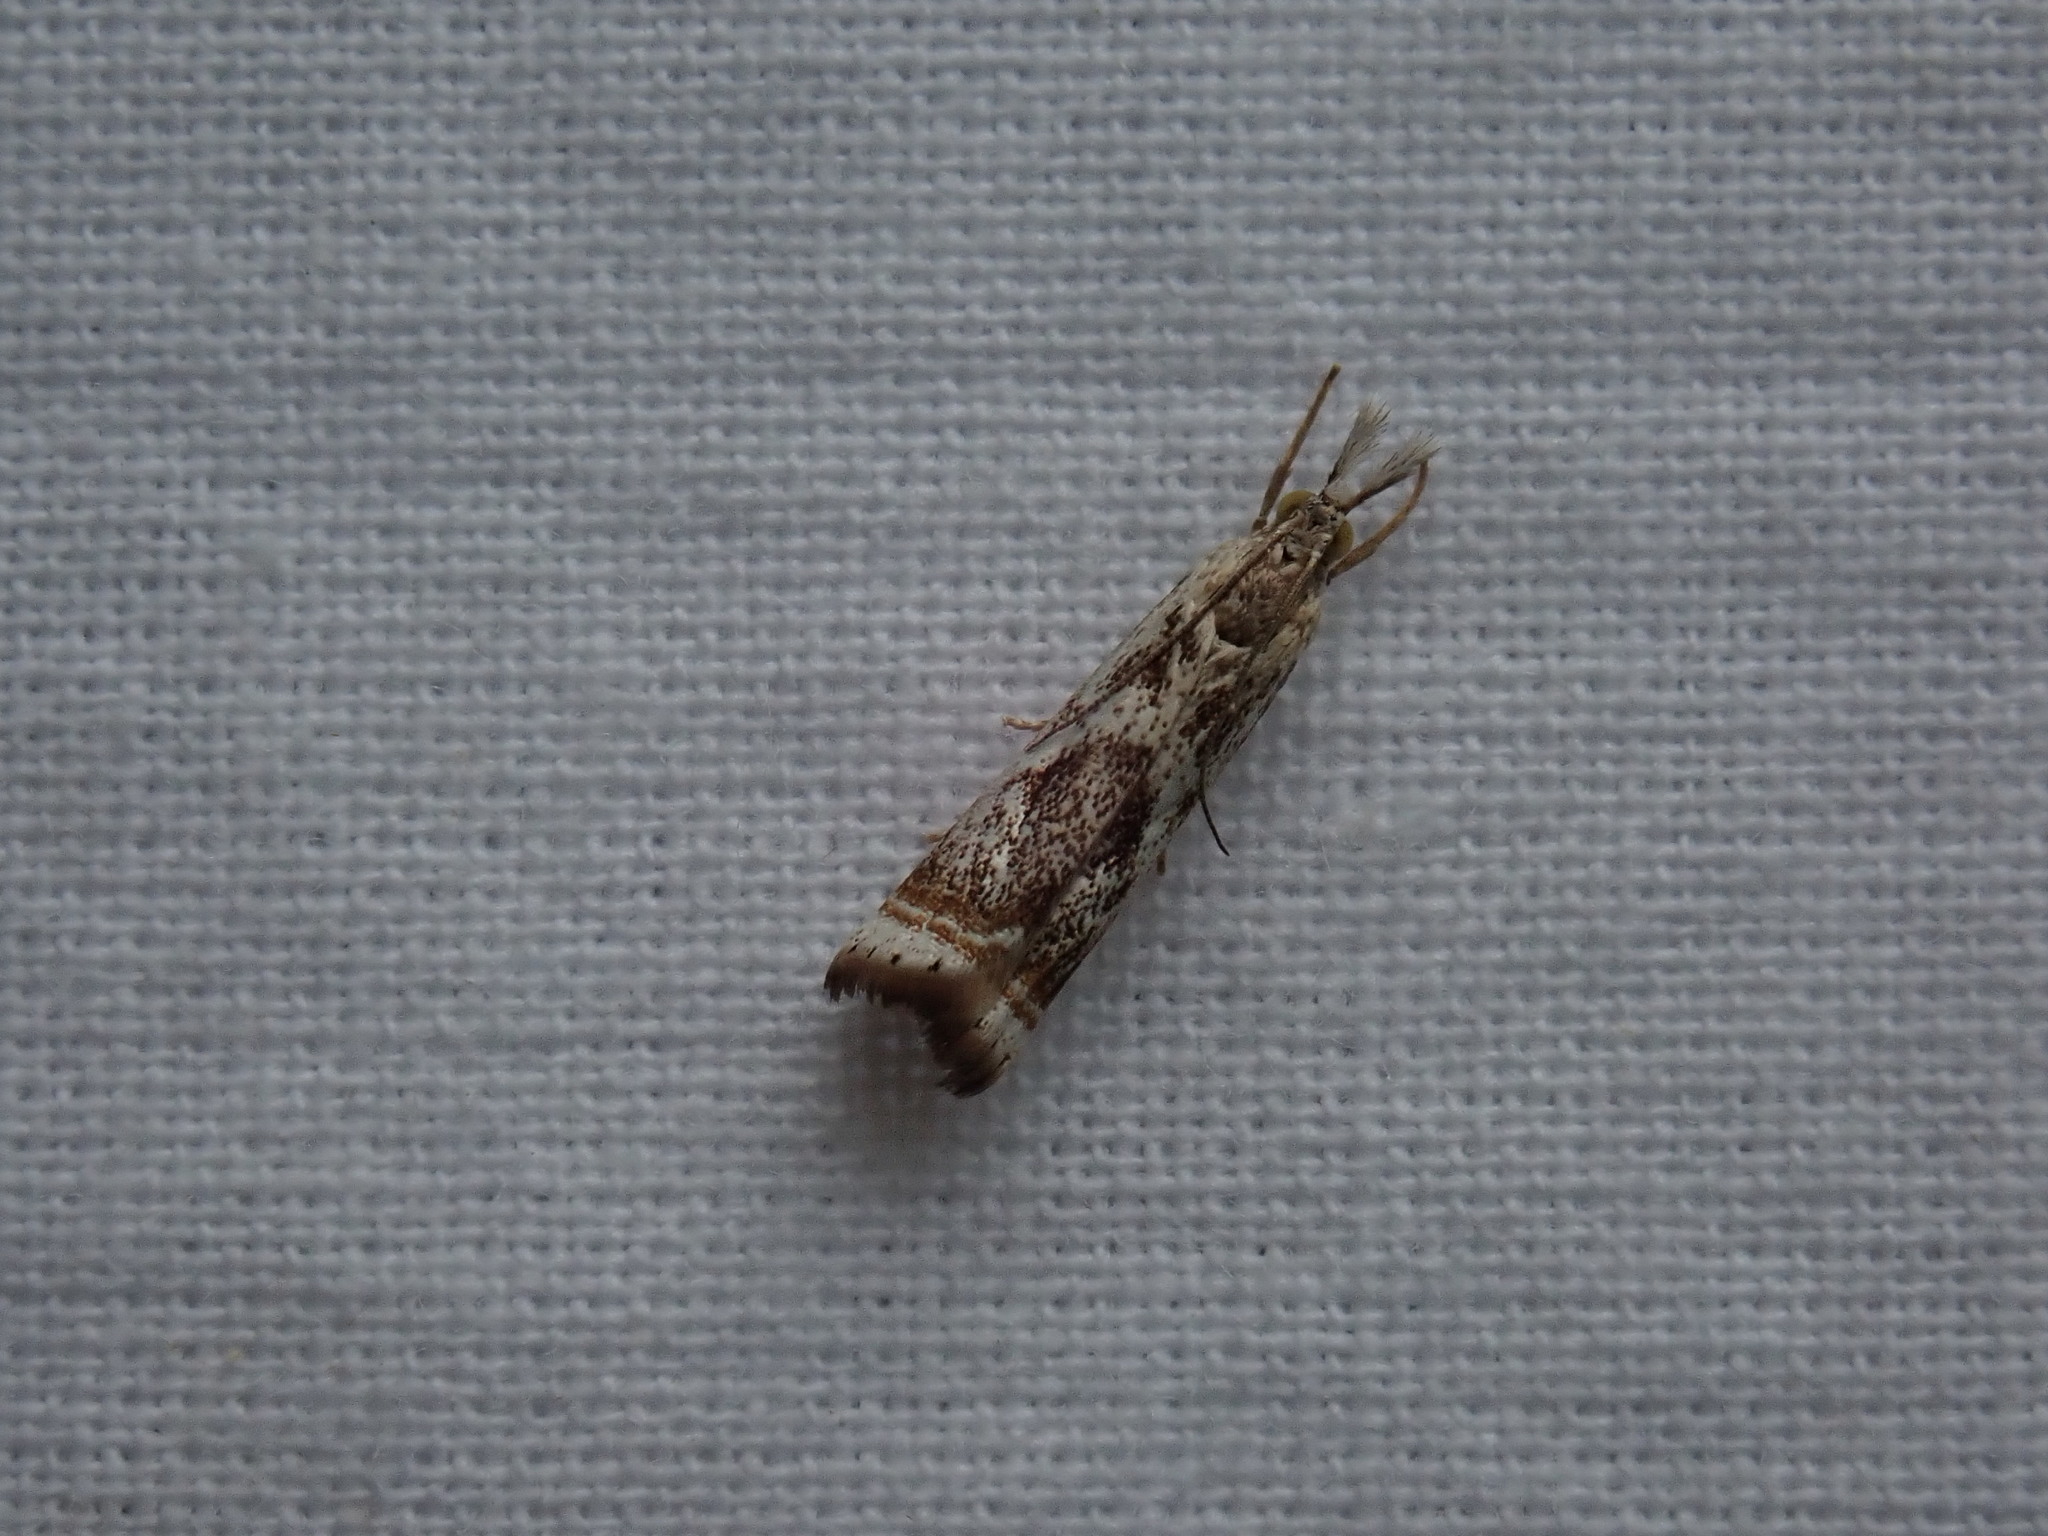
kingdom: Animalia
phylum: Arthropoda
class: Insecta
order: Lepidoptera
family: Crambidae
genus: Microcrambus
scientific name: Microcrambus elegans
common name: Elegant grass-veneer
